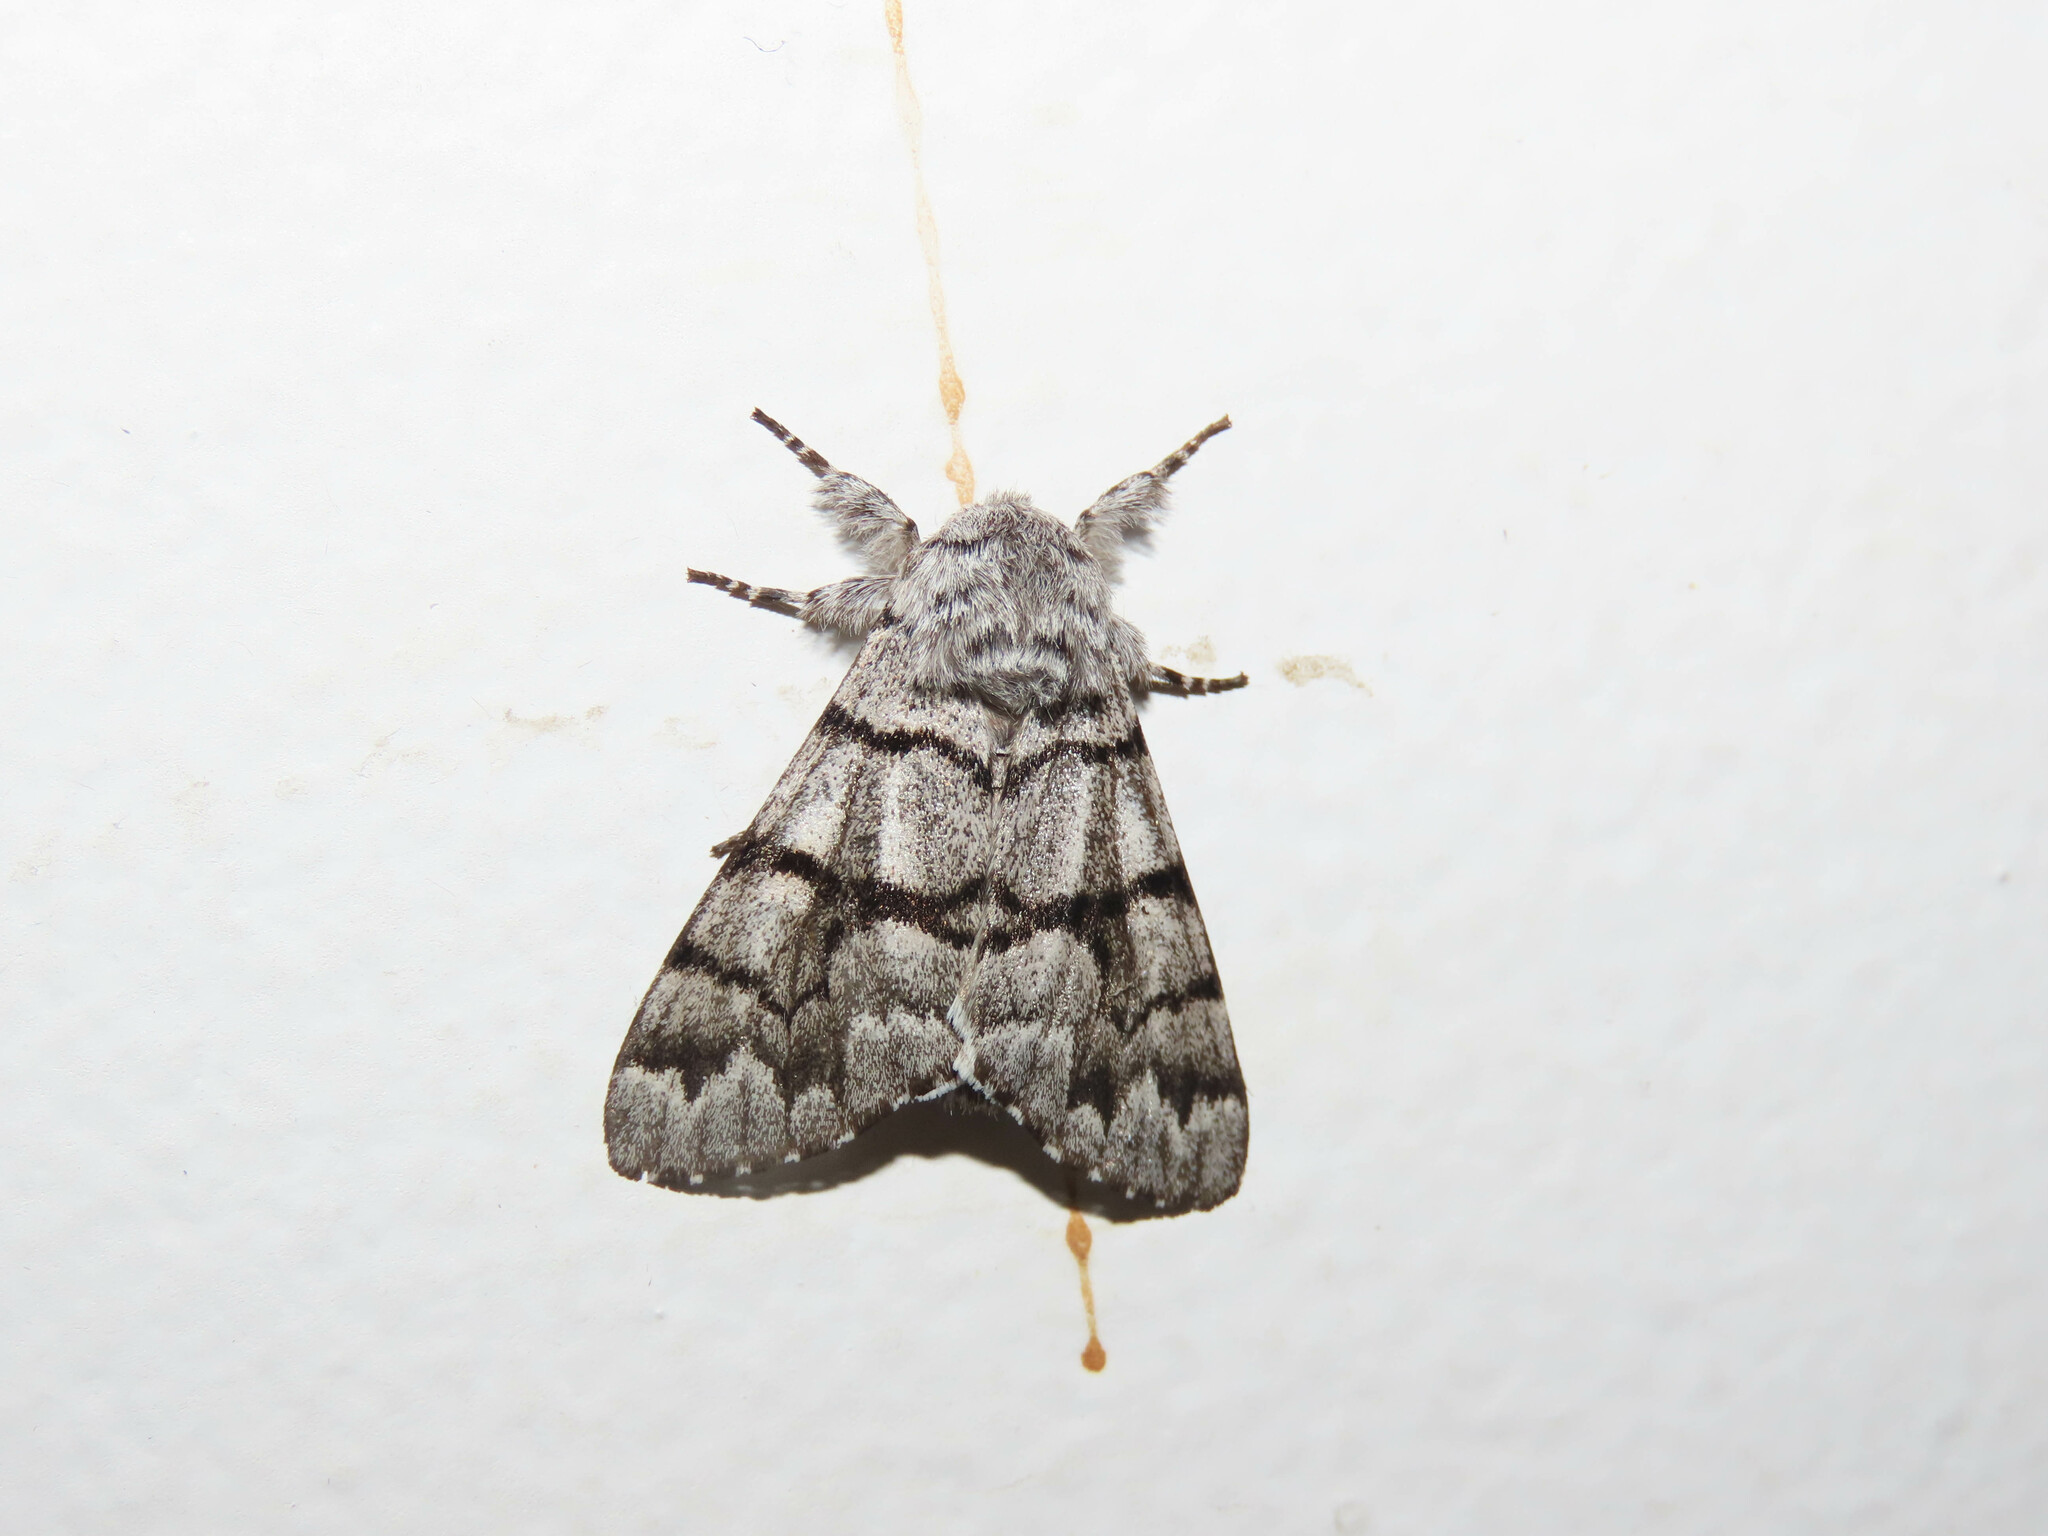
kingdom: Animalia
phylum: Arthropoda
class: Insecta
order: Lepidoptera
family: Noctuidae
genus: Panthea
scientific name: Panthea furcilla
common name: Eastern panthea moth
